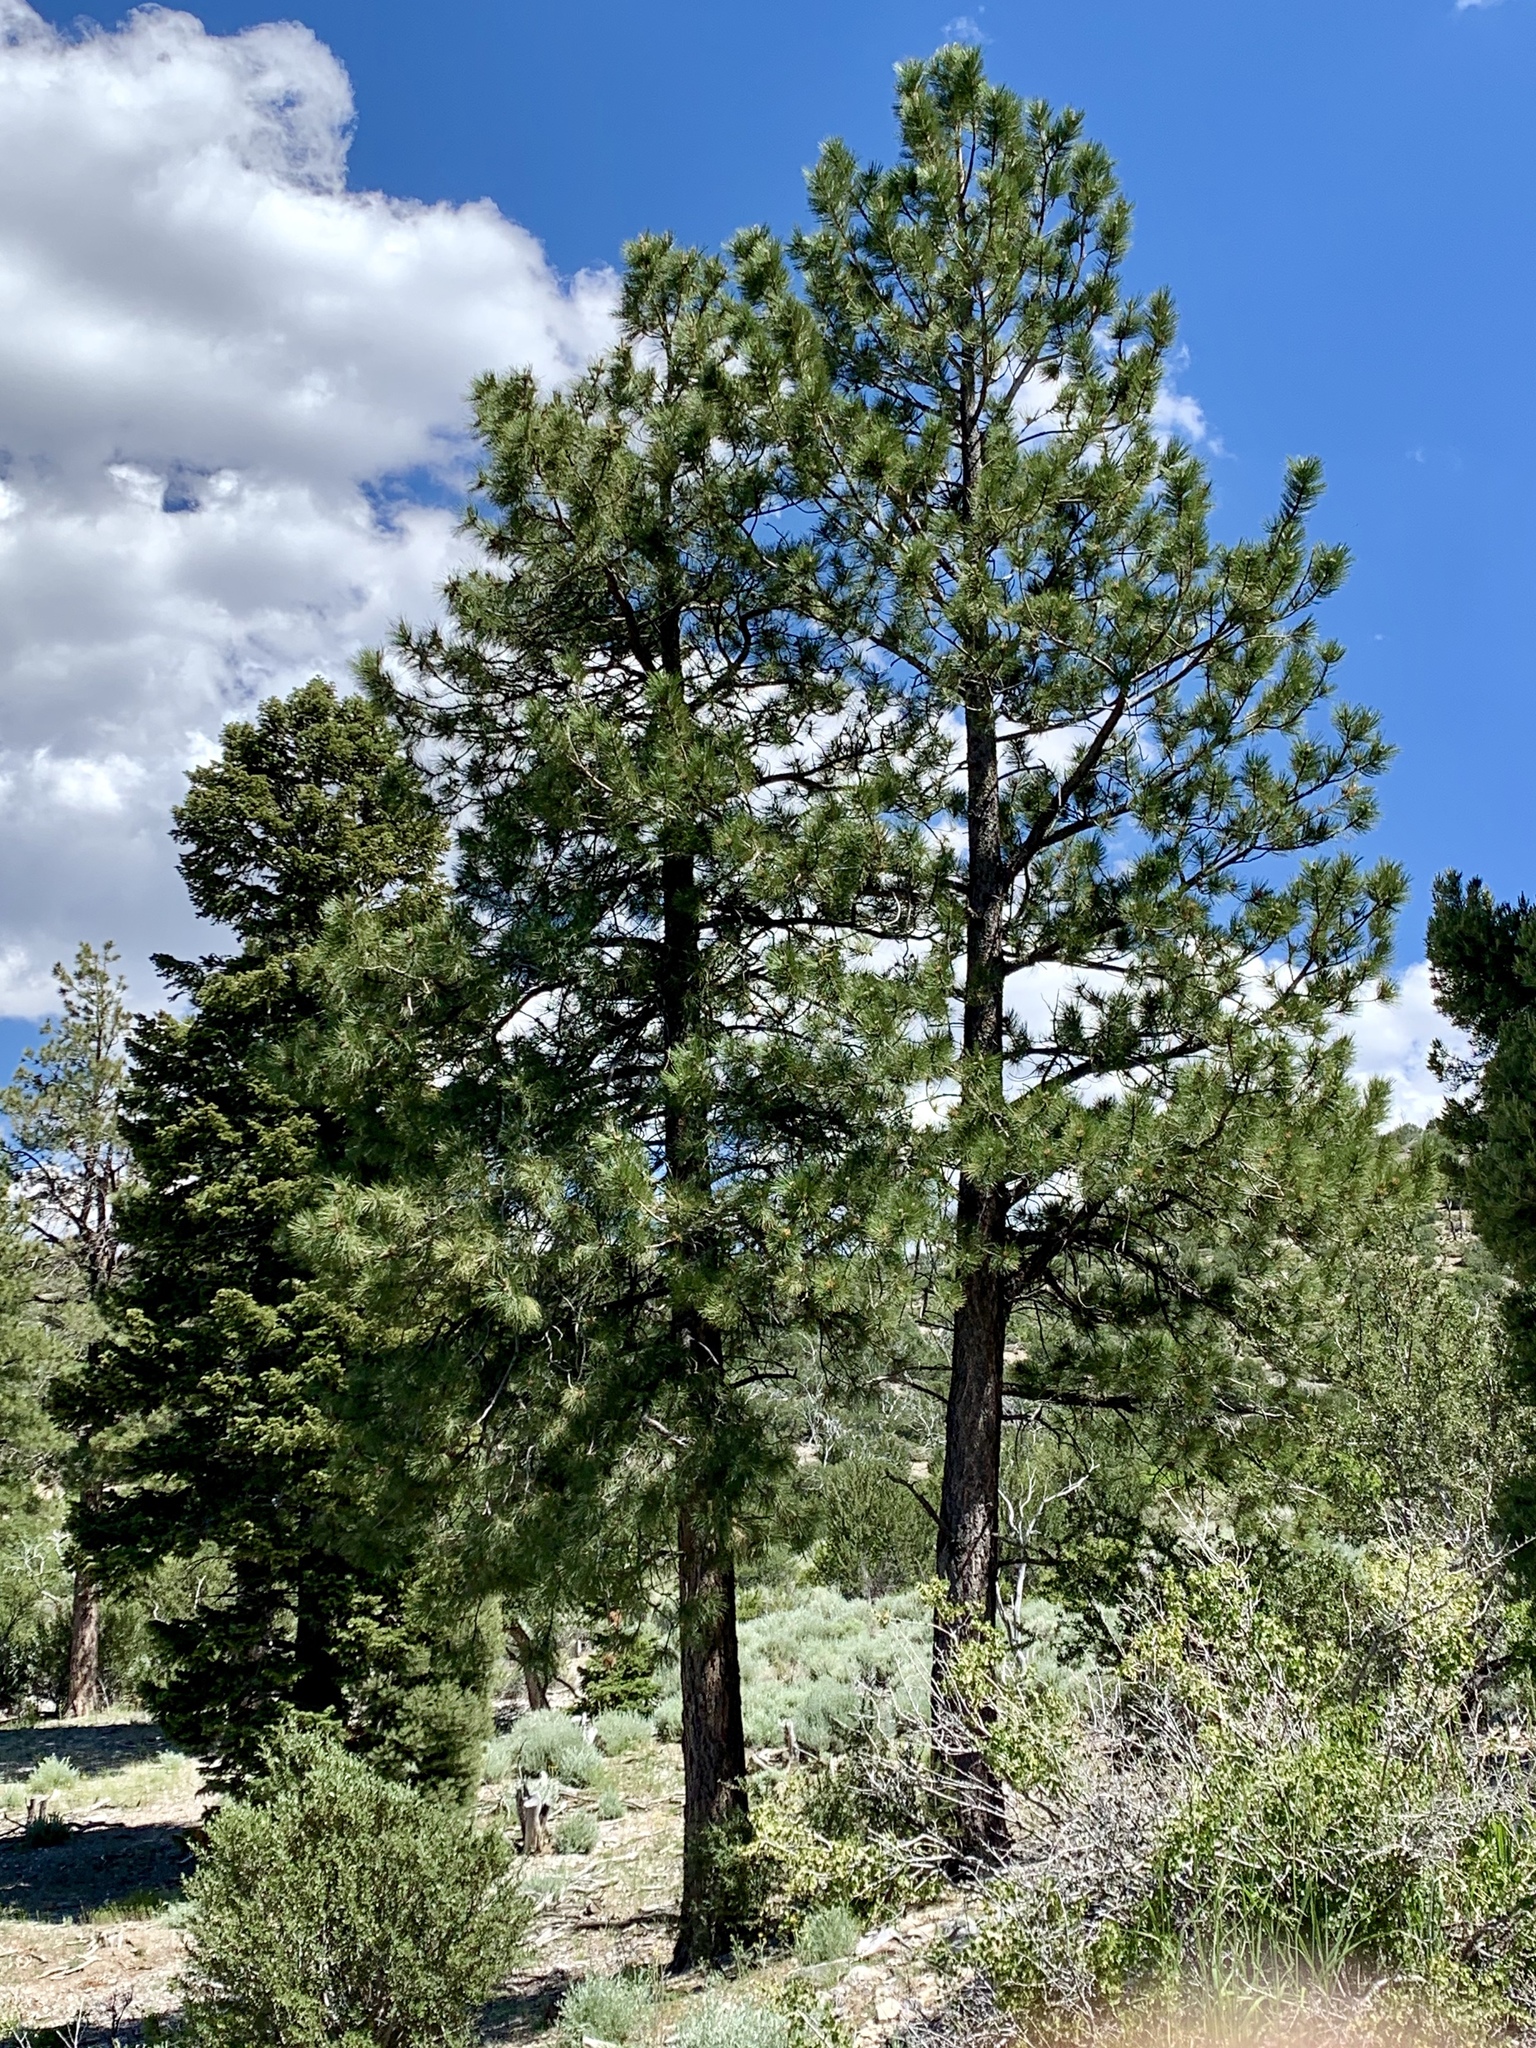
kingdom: Plantae
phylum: Tracheophyta
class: Pinopsida
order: Pinales
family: Pinaceae
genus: Pinus
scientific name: Pinus ponderosa
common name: Western yellow-pine
